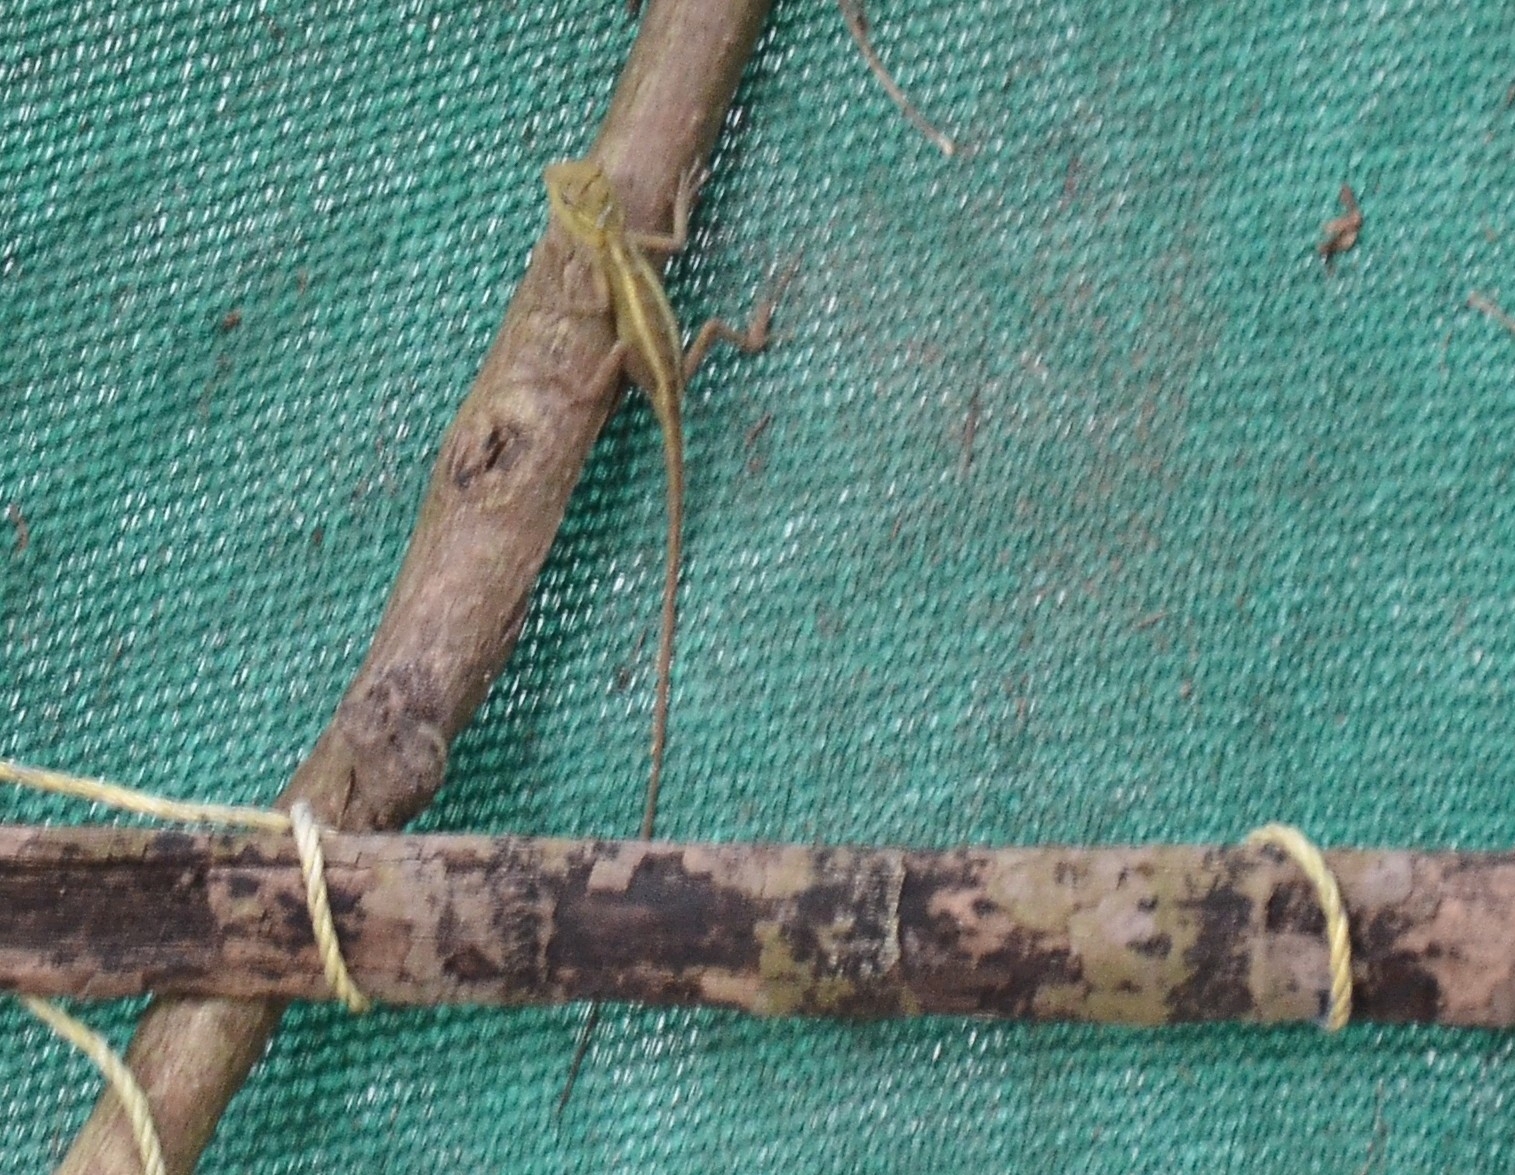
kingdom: Animalia
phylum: Chordata
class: Squamata
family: Agamidae
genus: Calotes
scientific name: Calotes versicolor
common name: Oriental garden lizard
